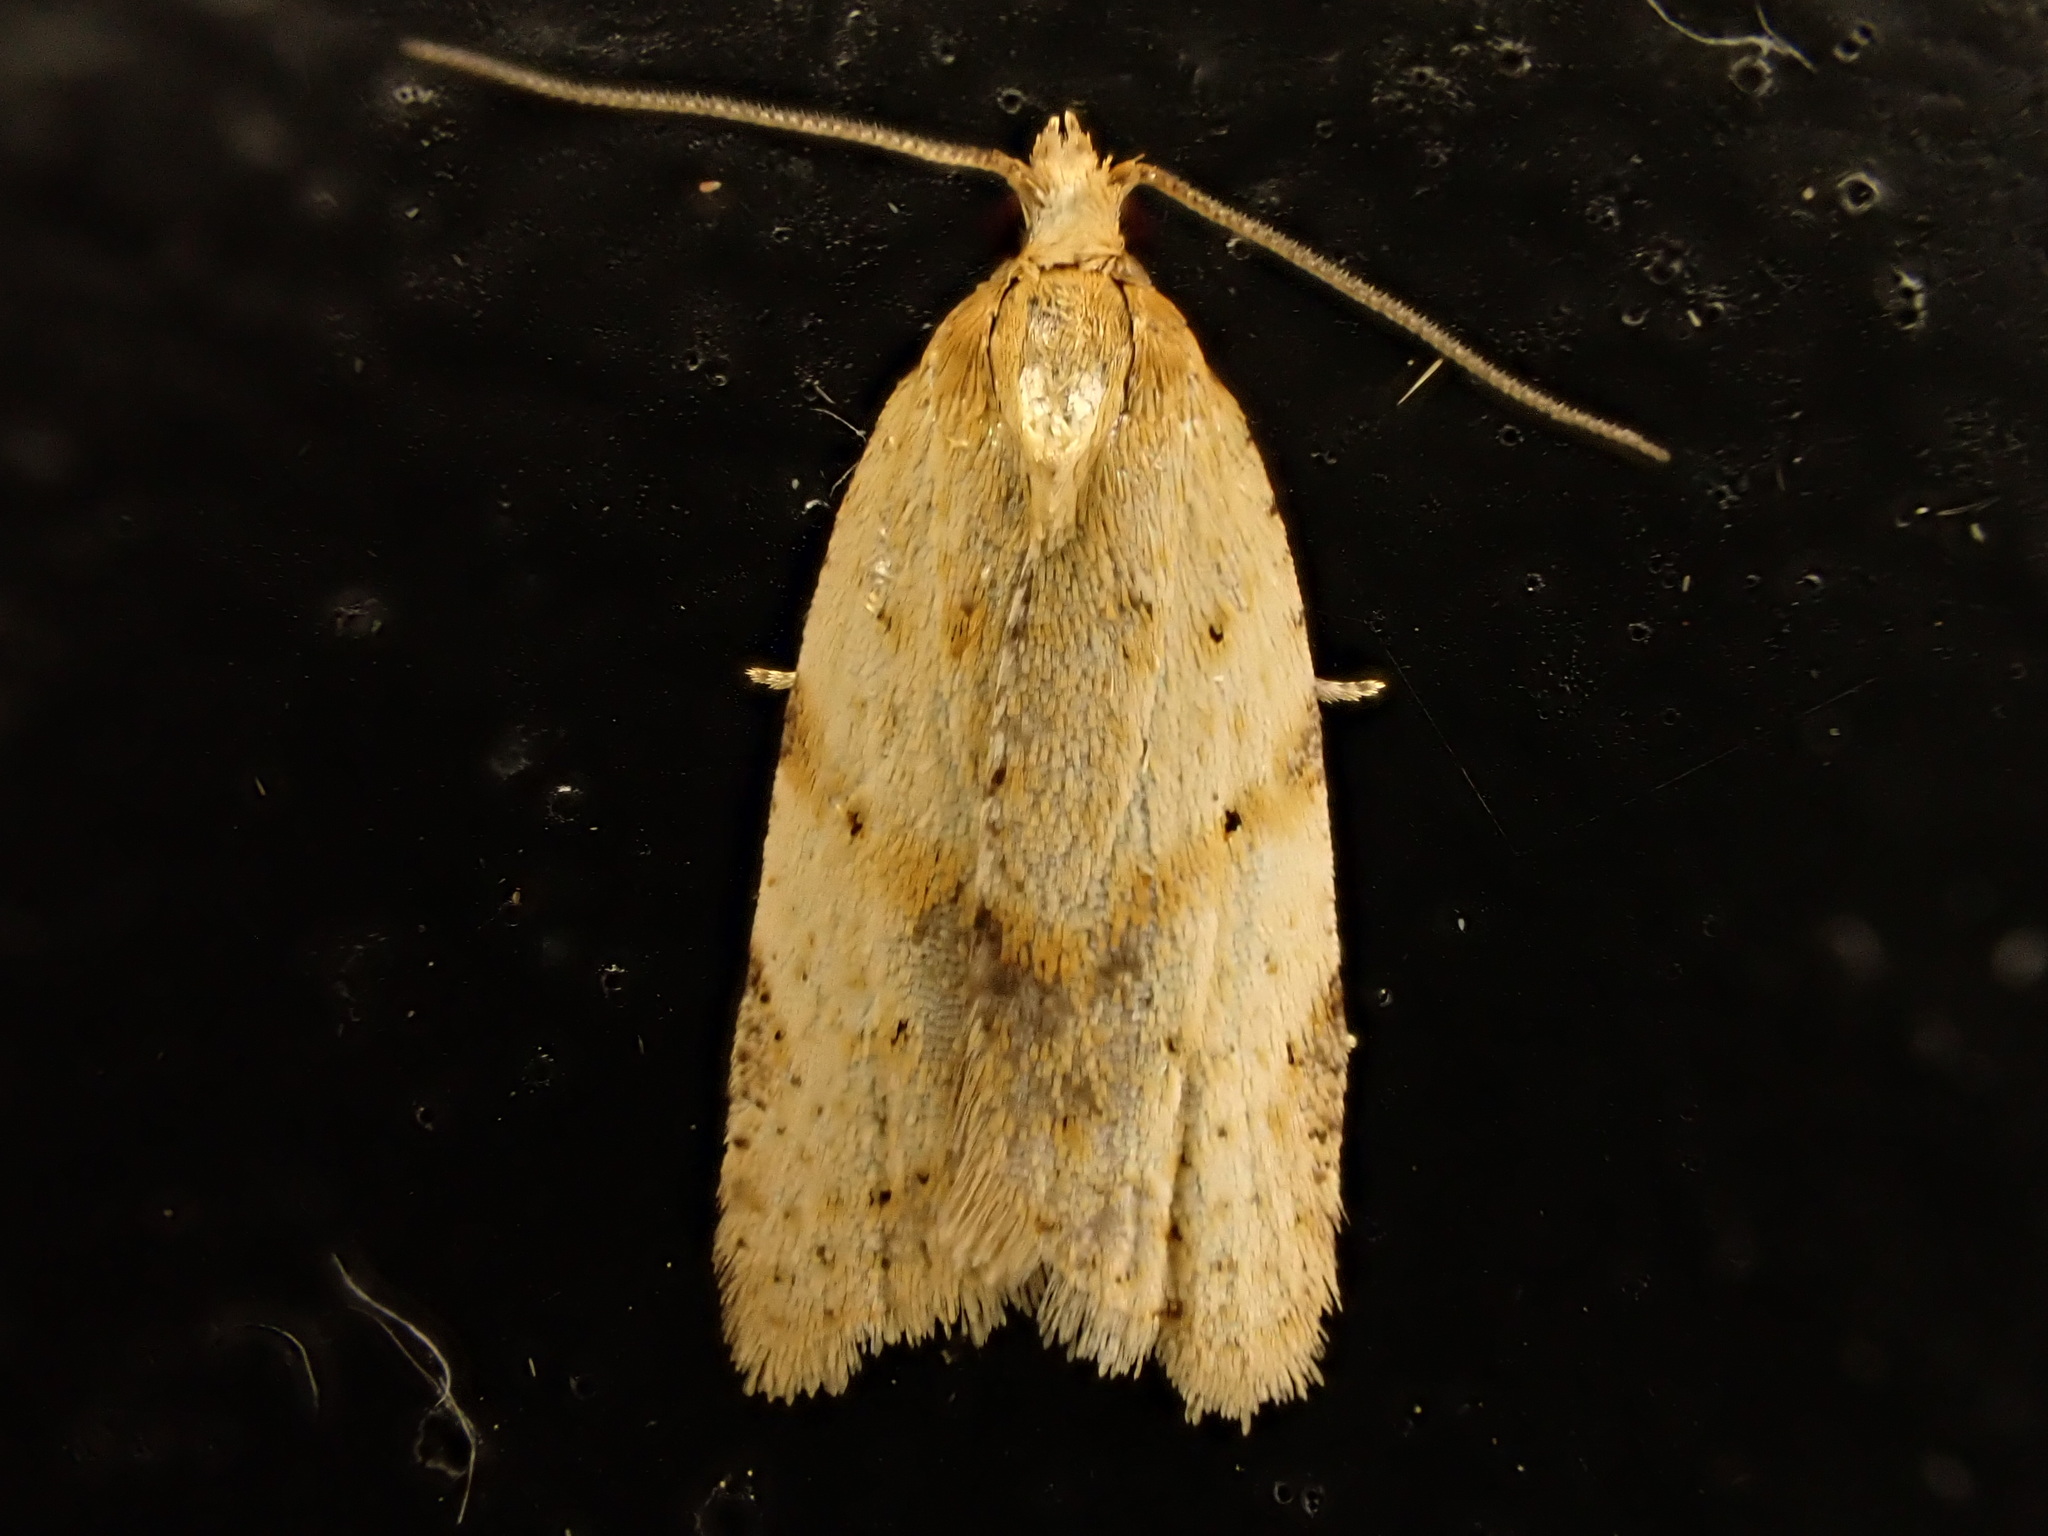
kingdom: Animalia
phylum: Arthropoda
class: Insecta
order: Lepidoptera
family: Tortricidae
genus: Clepsis
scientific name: Clepsis
